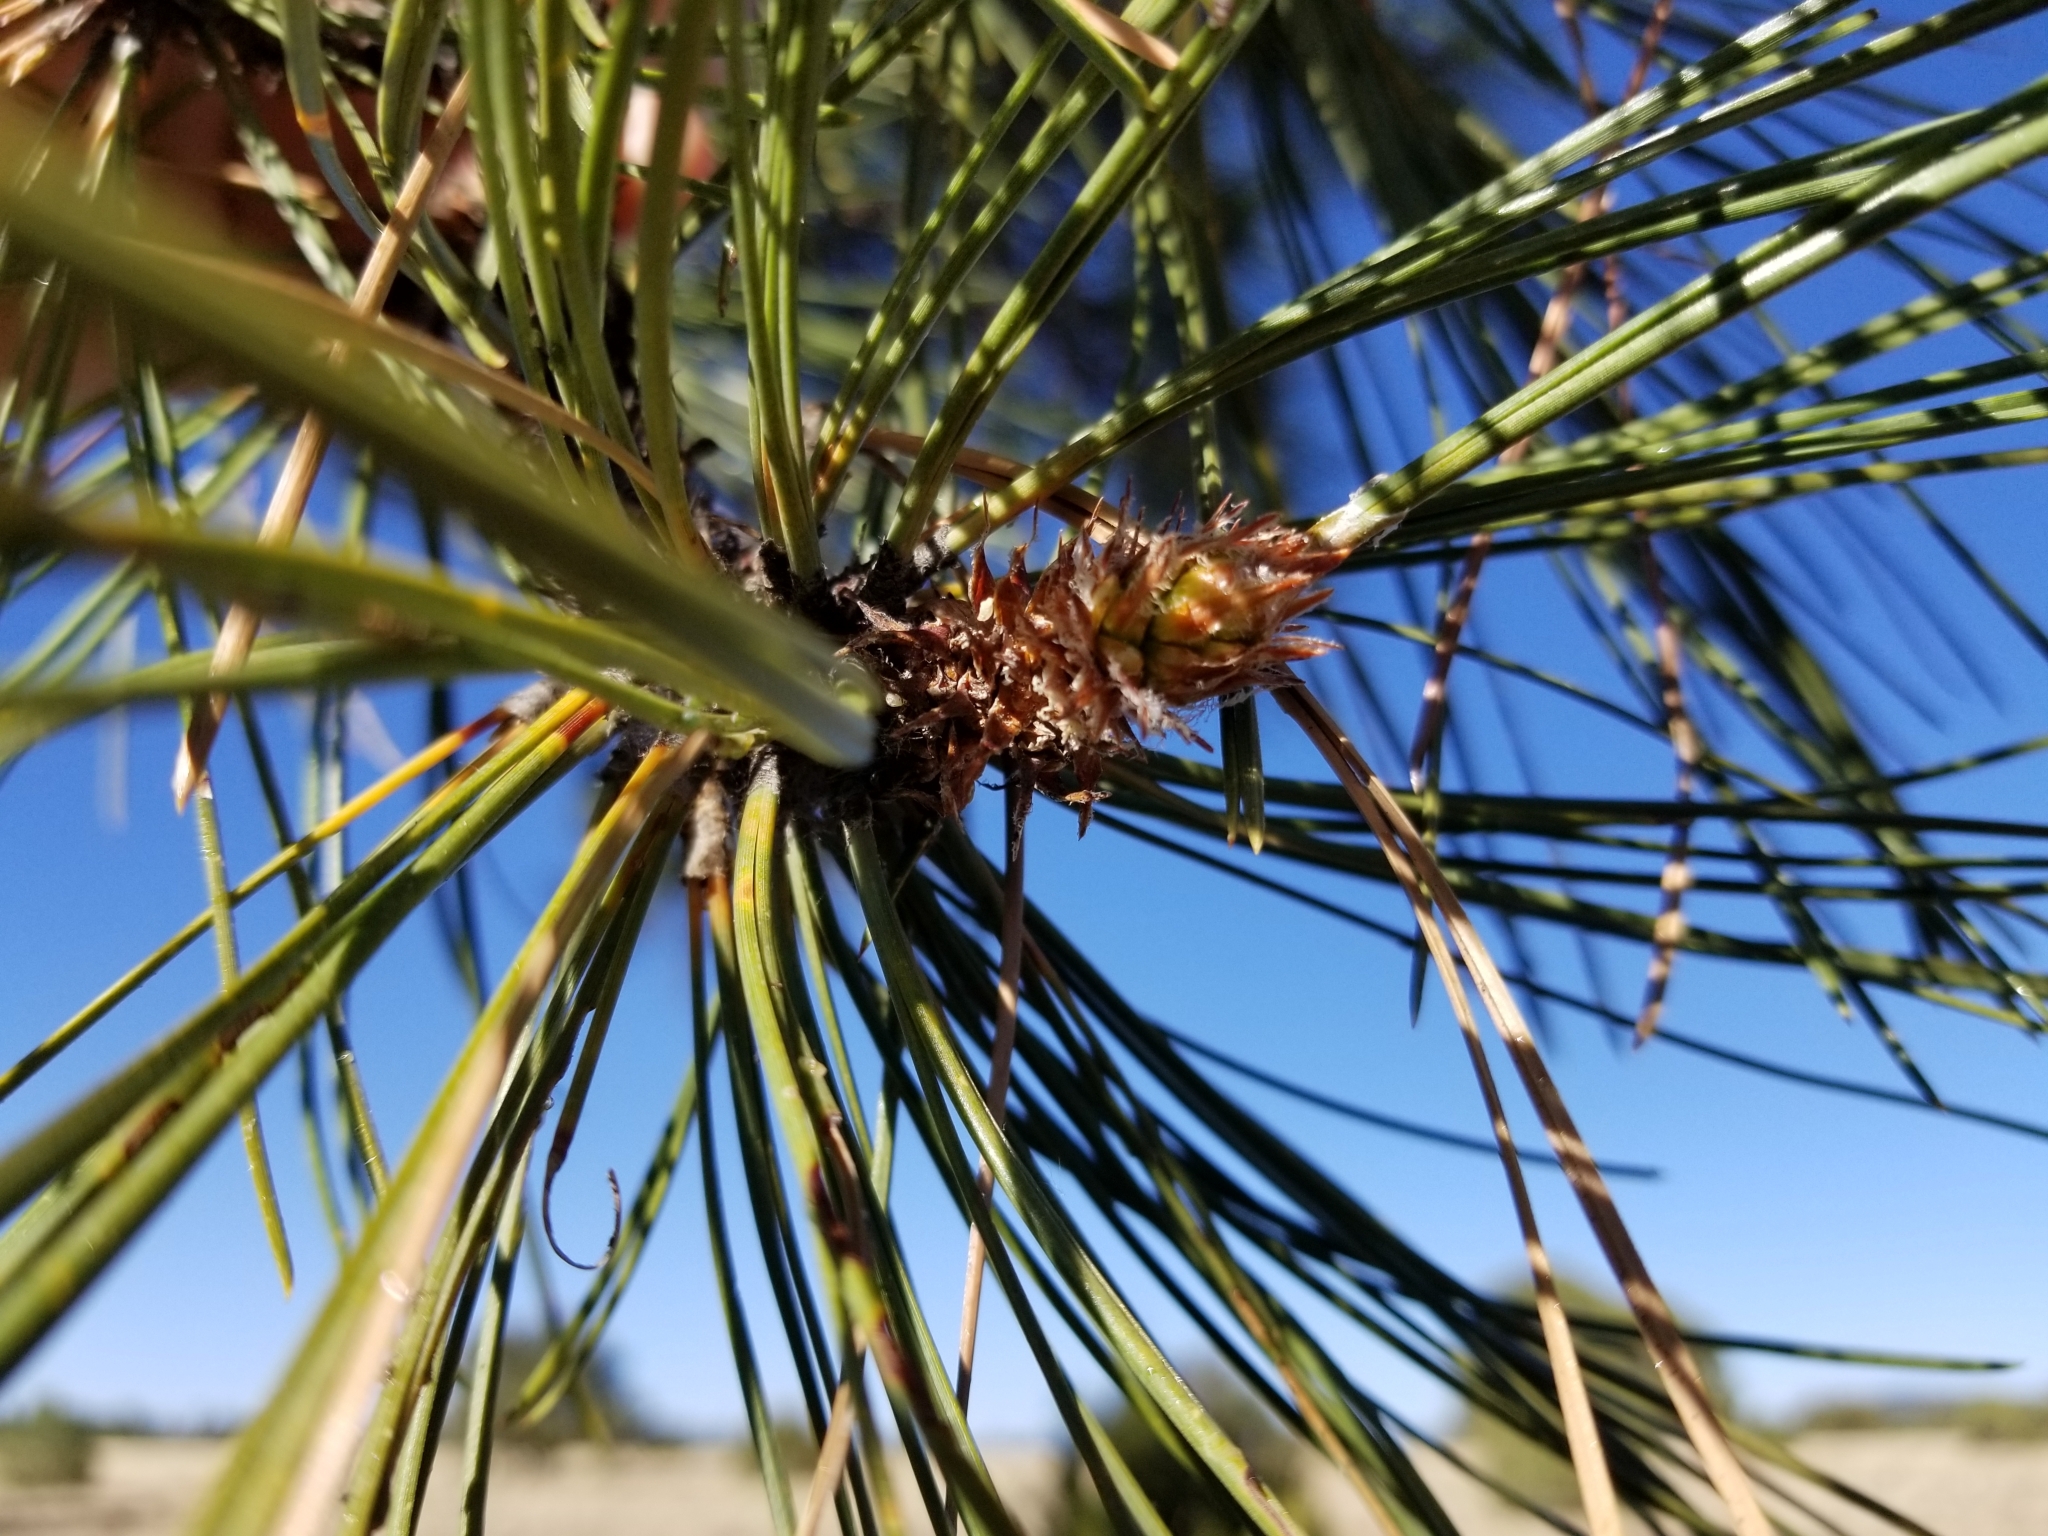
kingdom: Plantae
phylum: Tracheophyta
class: Pinopsida
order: Pinales
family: Pinaceae
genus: Pinus
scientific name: Pinus ponderosa
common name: Western yellow-pine
